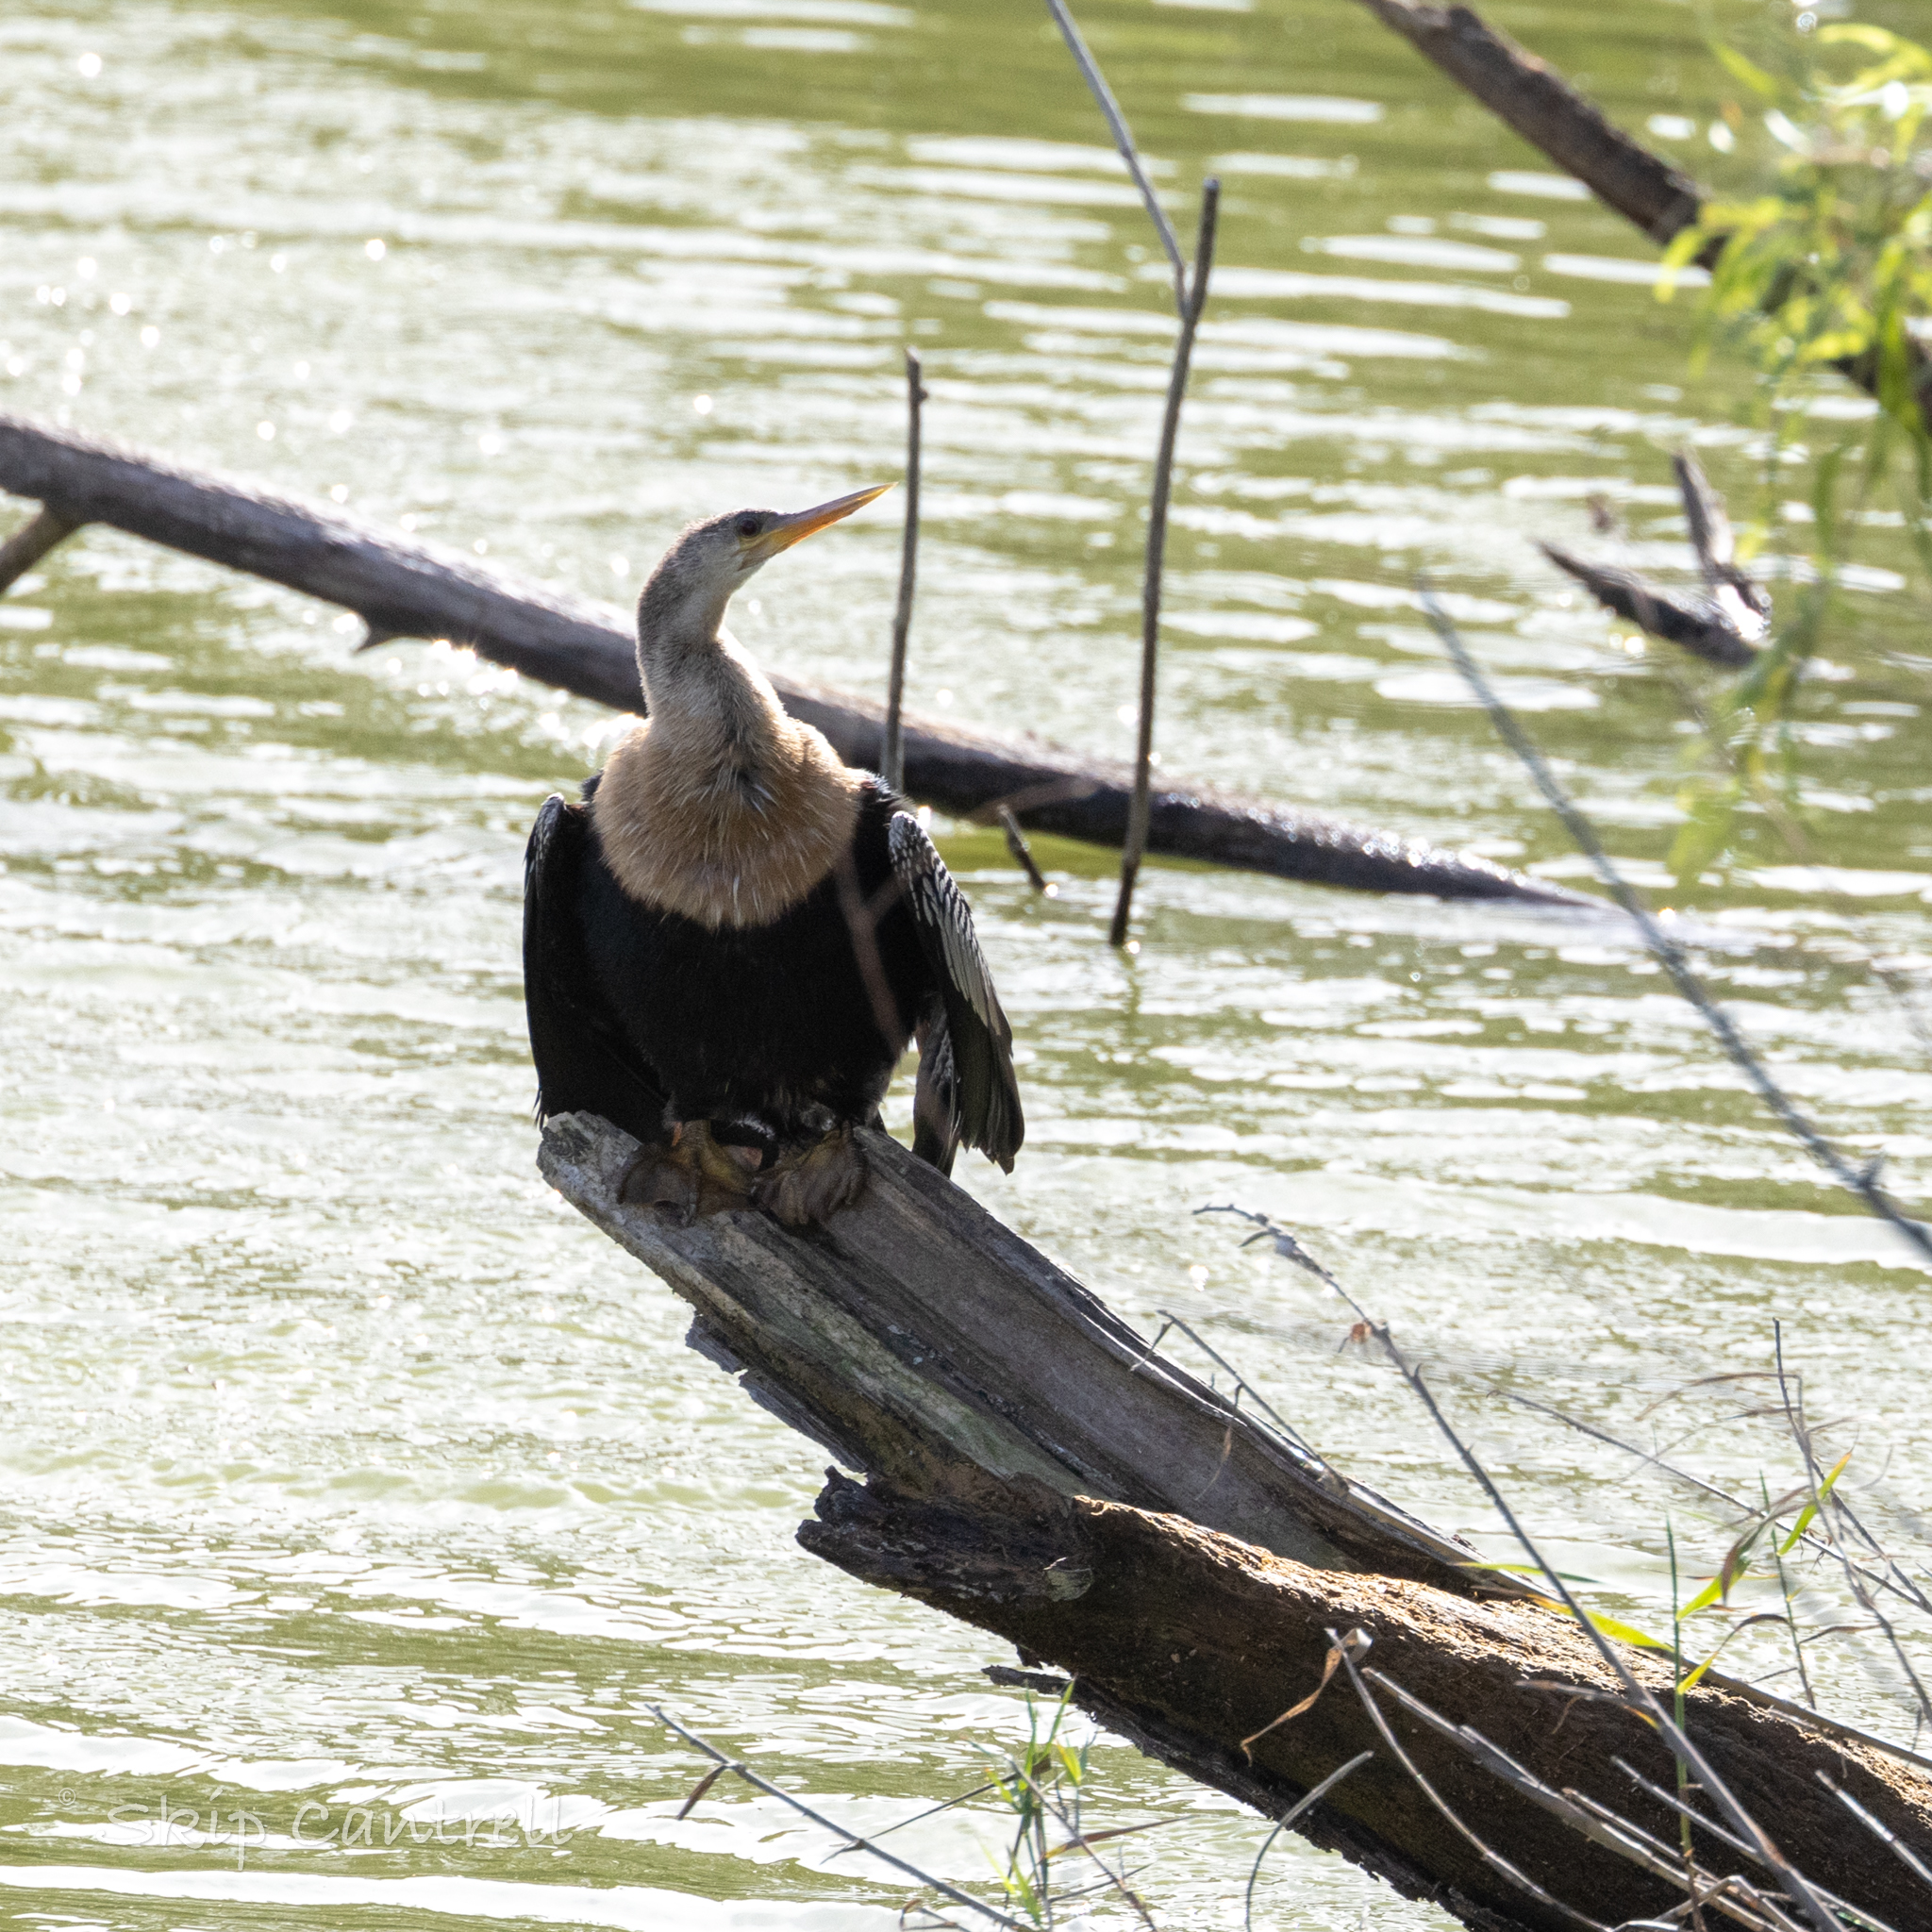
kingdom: Animalia
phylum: Chordata
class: Aves
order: Suliformes
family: Anhingidae
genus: Anhinga
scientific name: Anhinga anhinga
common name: Anhinga
